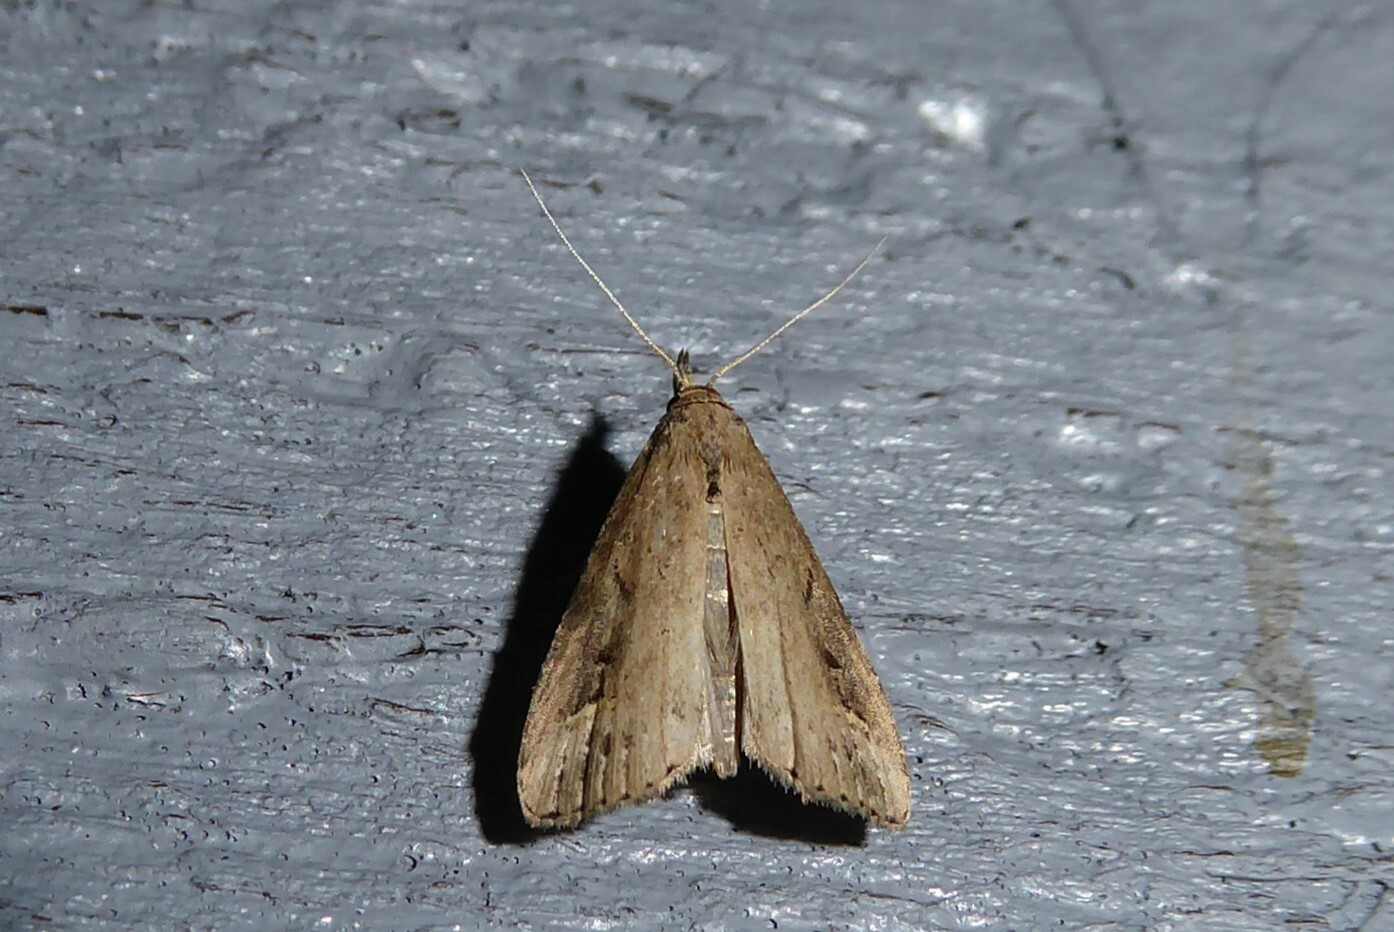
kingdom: Animalia
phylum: Arthropoda
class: Insecta
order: Lepidoptera
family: Erebidae
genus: Schrankia
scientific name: Schrankia costaestrigalis
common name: Pinion-streaked snout
